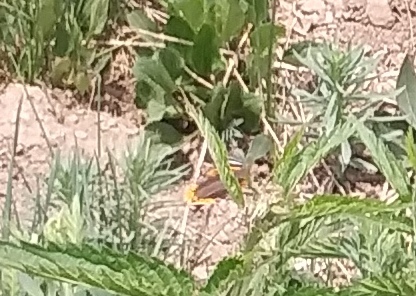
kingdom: Animalia
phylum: Arthropoda
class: Insecta
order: Lepidoptera
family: Nymphalidae
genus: Vanessa
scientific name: Vanessa atalanta
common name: Red admiral
